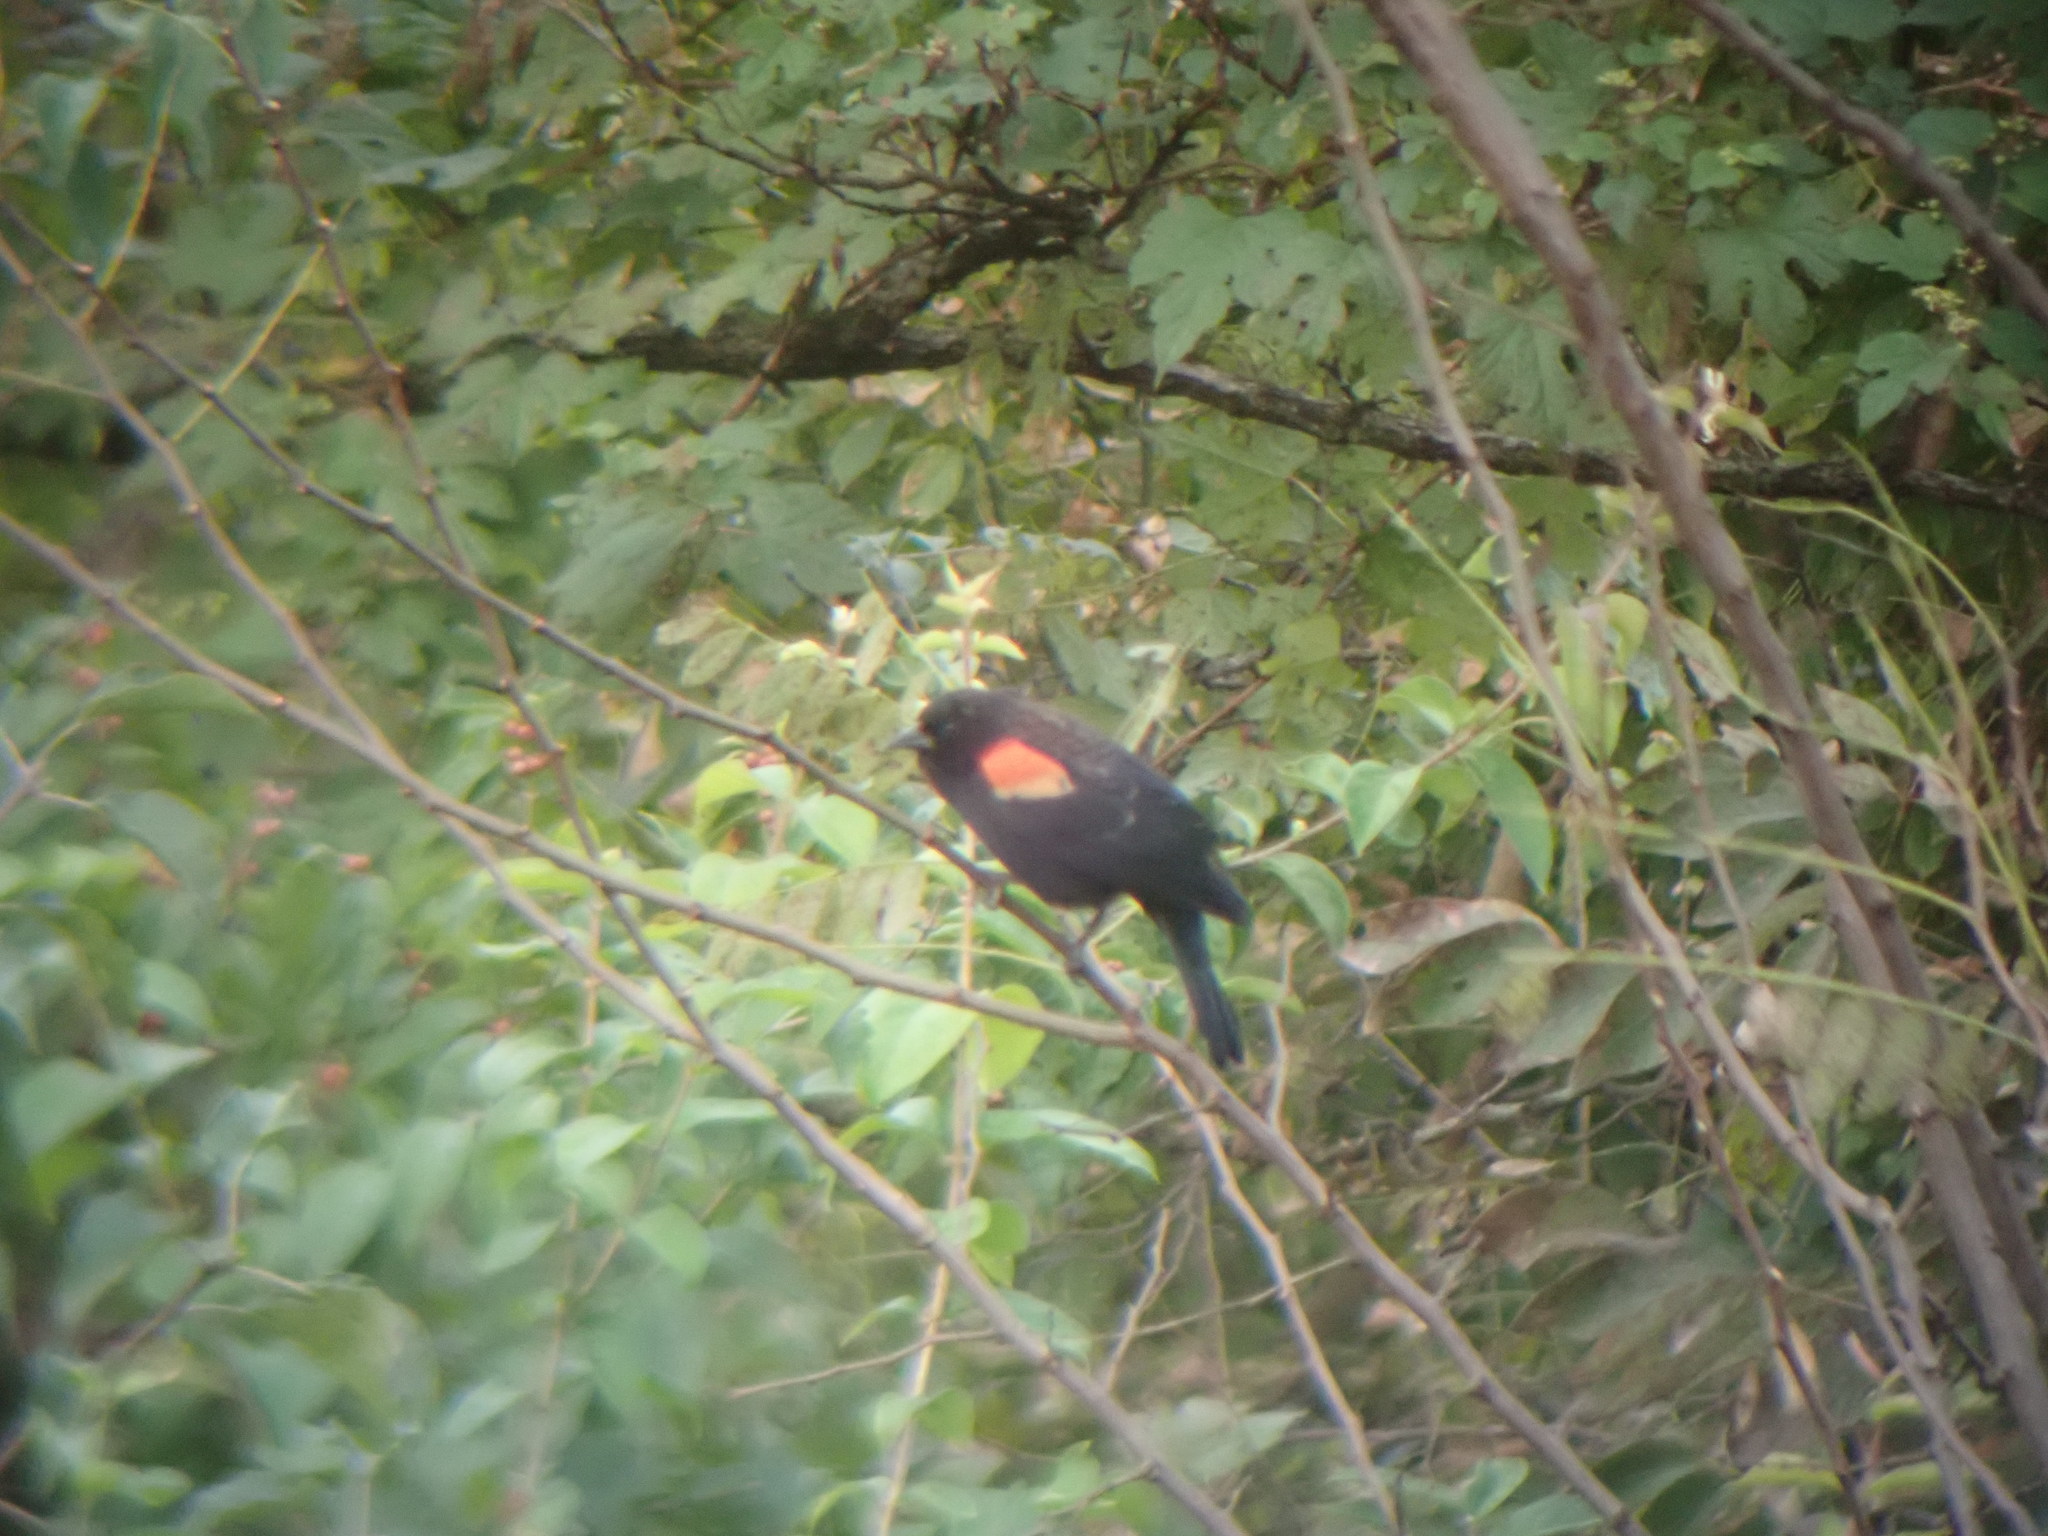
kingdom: Animalia
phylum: Chordata
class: Aves
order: Passeriformes
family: Icteridae
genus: Agelaius
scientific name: Agelaius phoeniceus
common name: Red-winged blackbird
